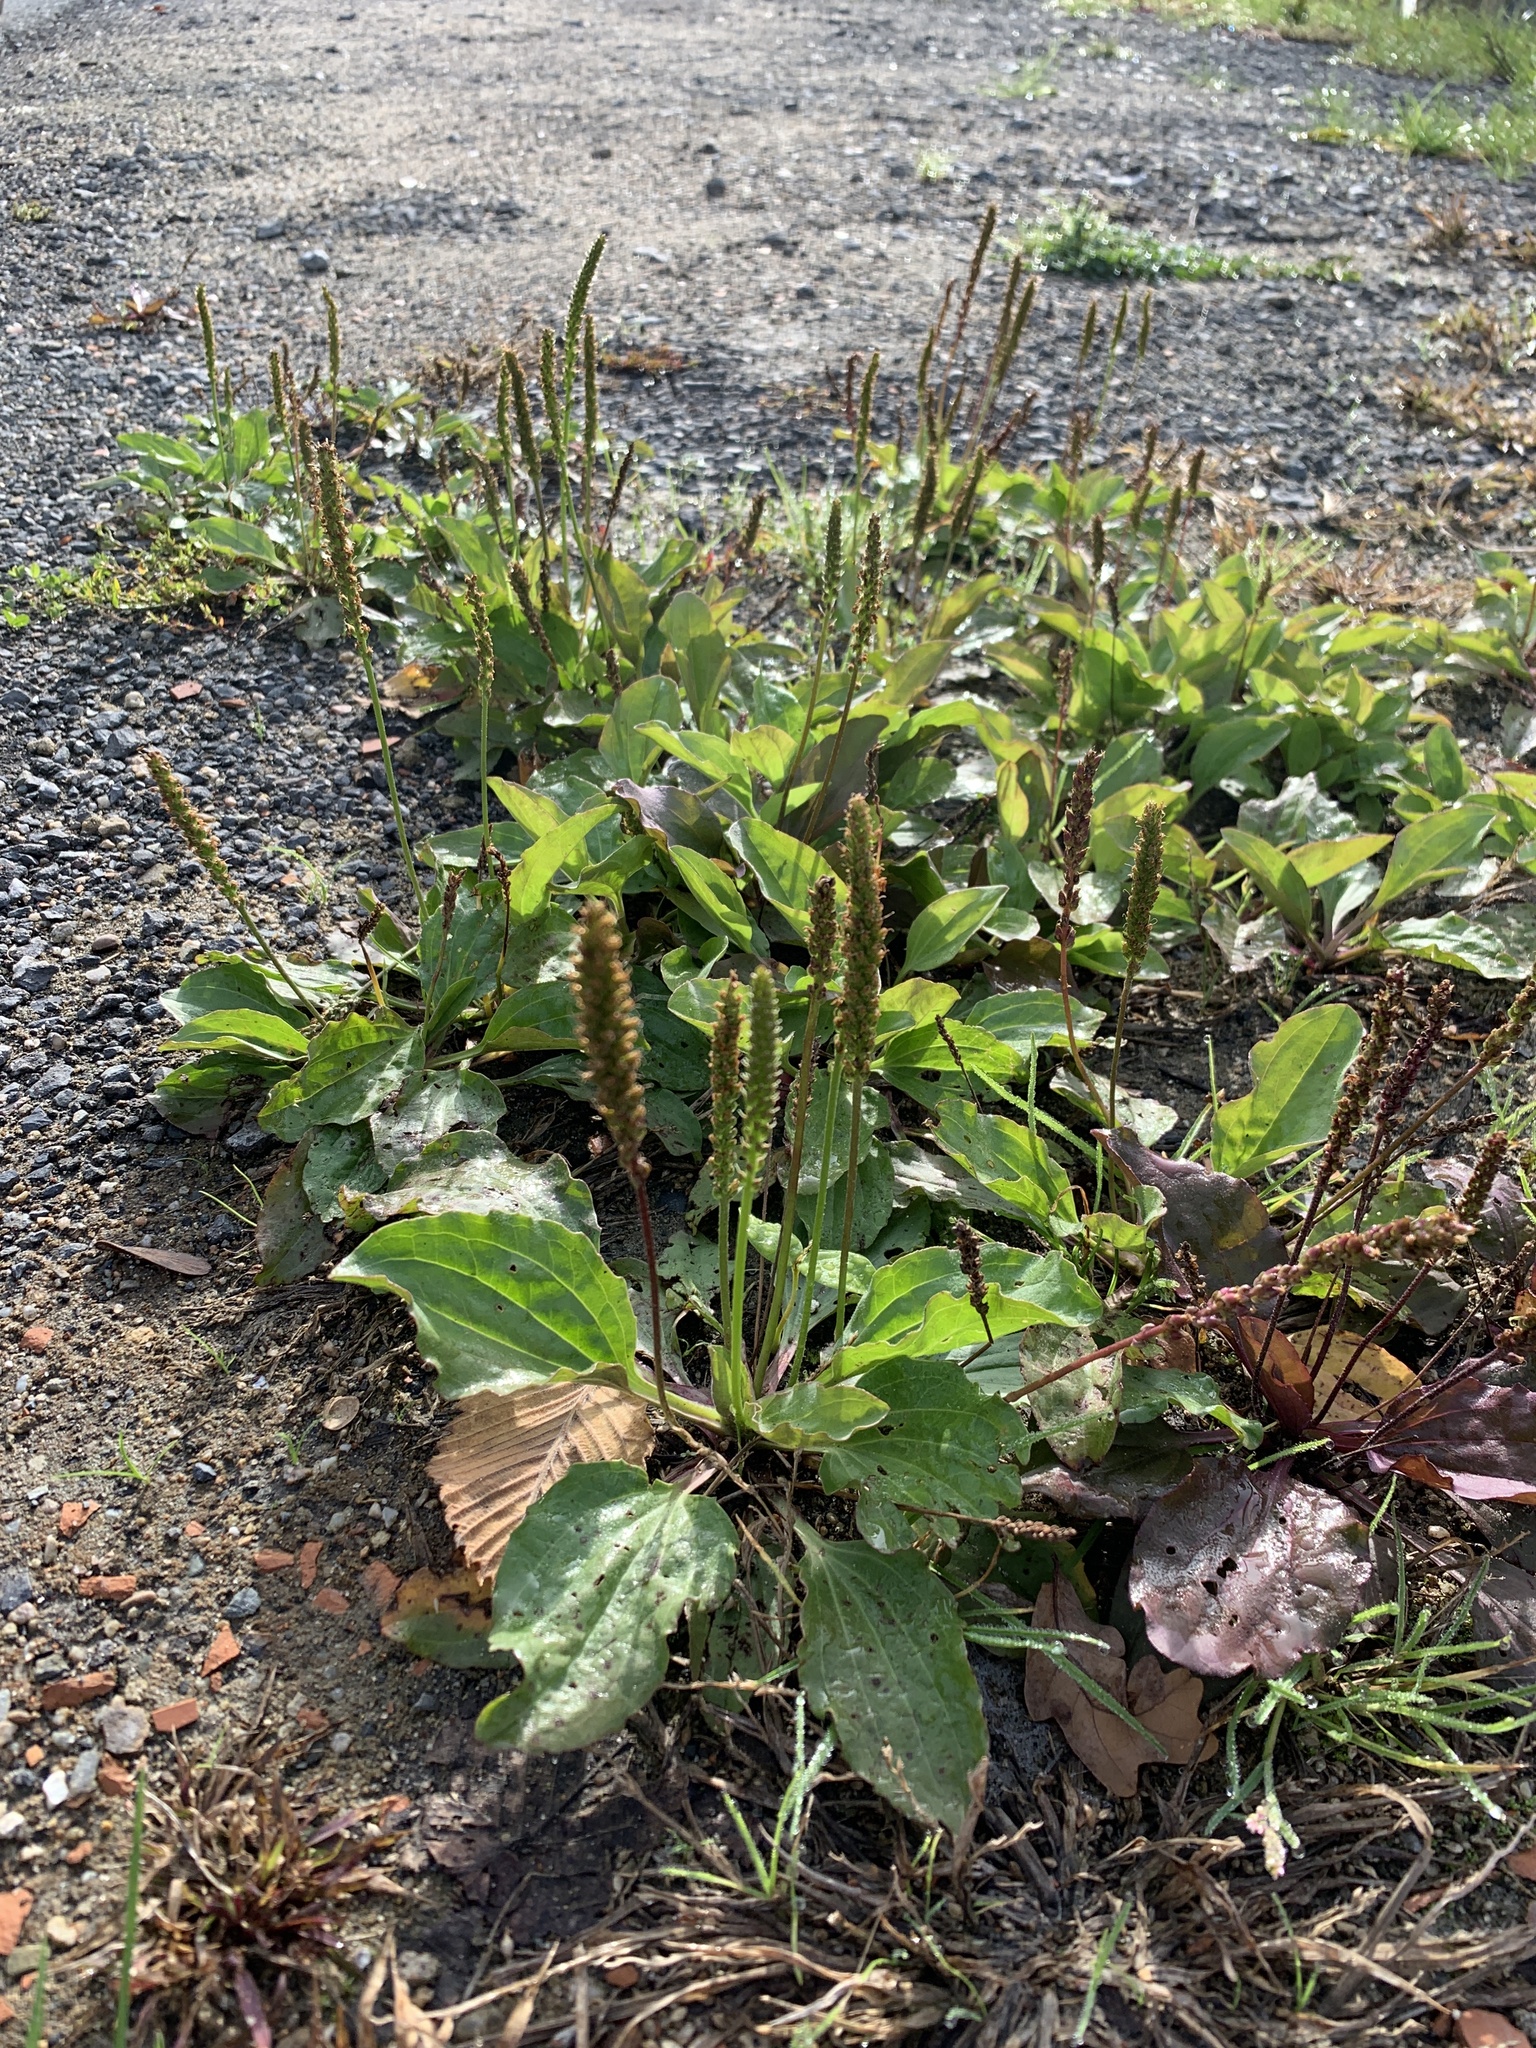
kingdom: Plantae
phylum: Tracheophyta
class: Magnoliopsida
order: Lamiales
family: Plantaginaceae
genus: Plantago
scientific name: Plantago major
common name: Common plantain
